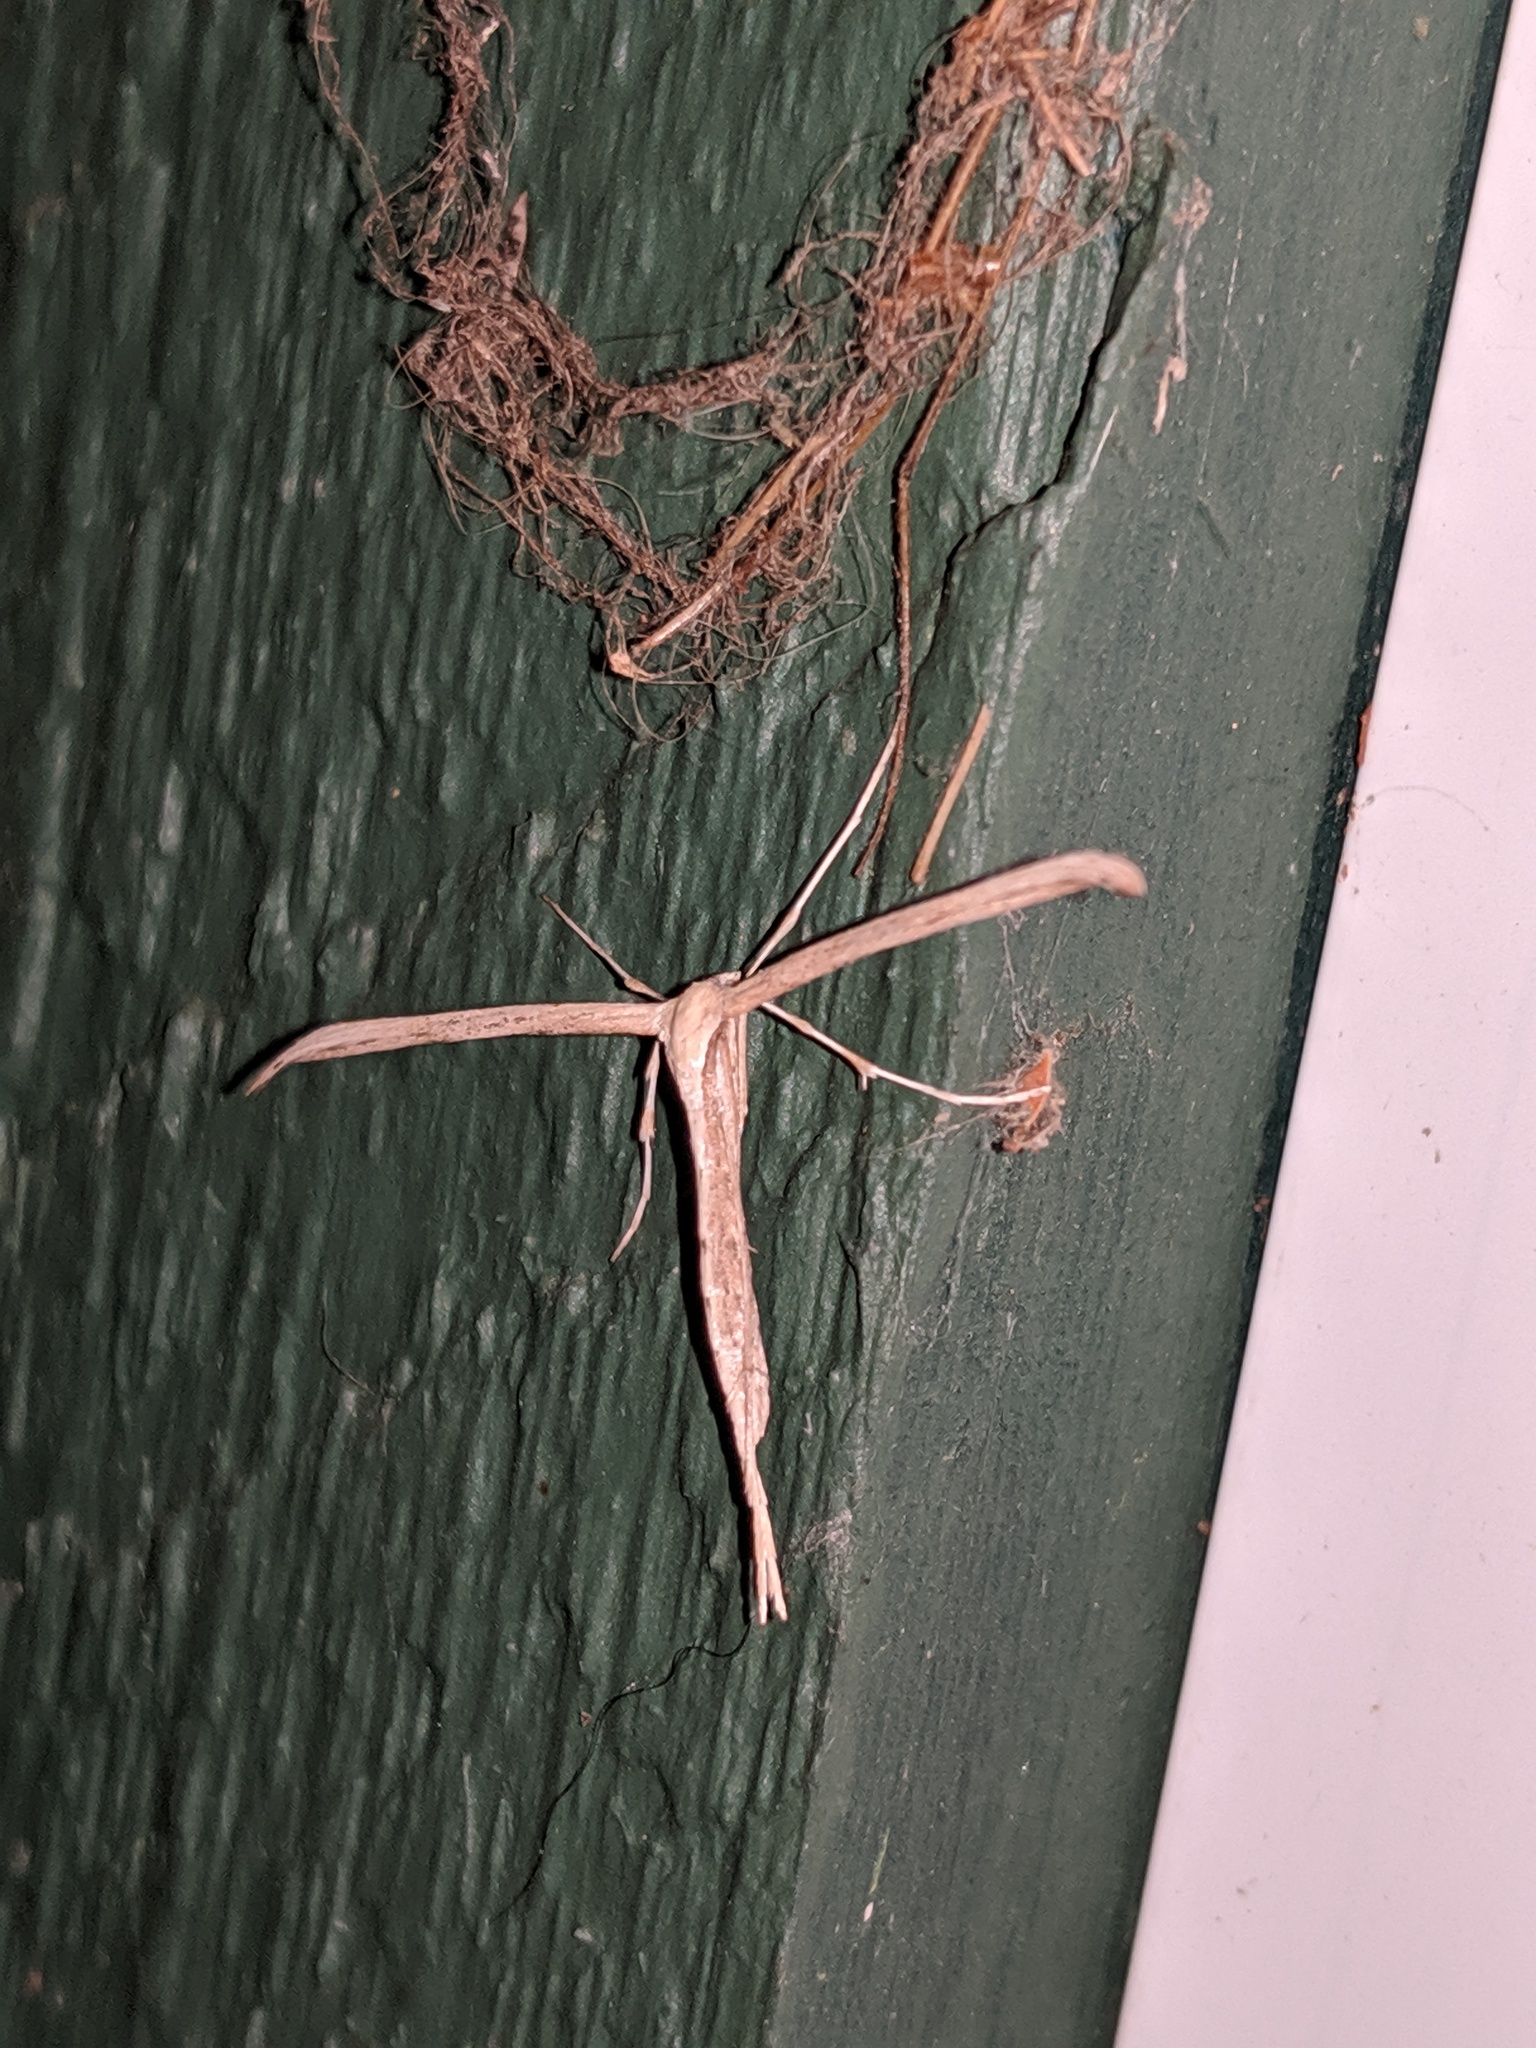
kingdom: Animalia
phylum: Arthropoda
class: Insecta
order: Lepidoptera
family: Pterophoridae
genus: Emmelina
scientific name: Emmelina monodactyla
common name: Common plume
